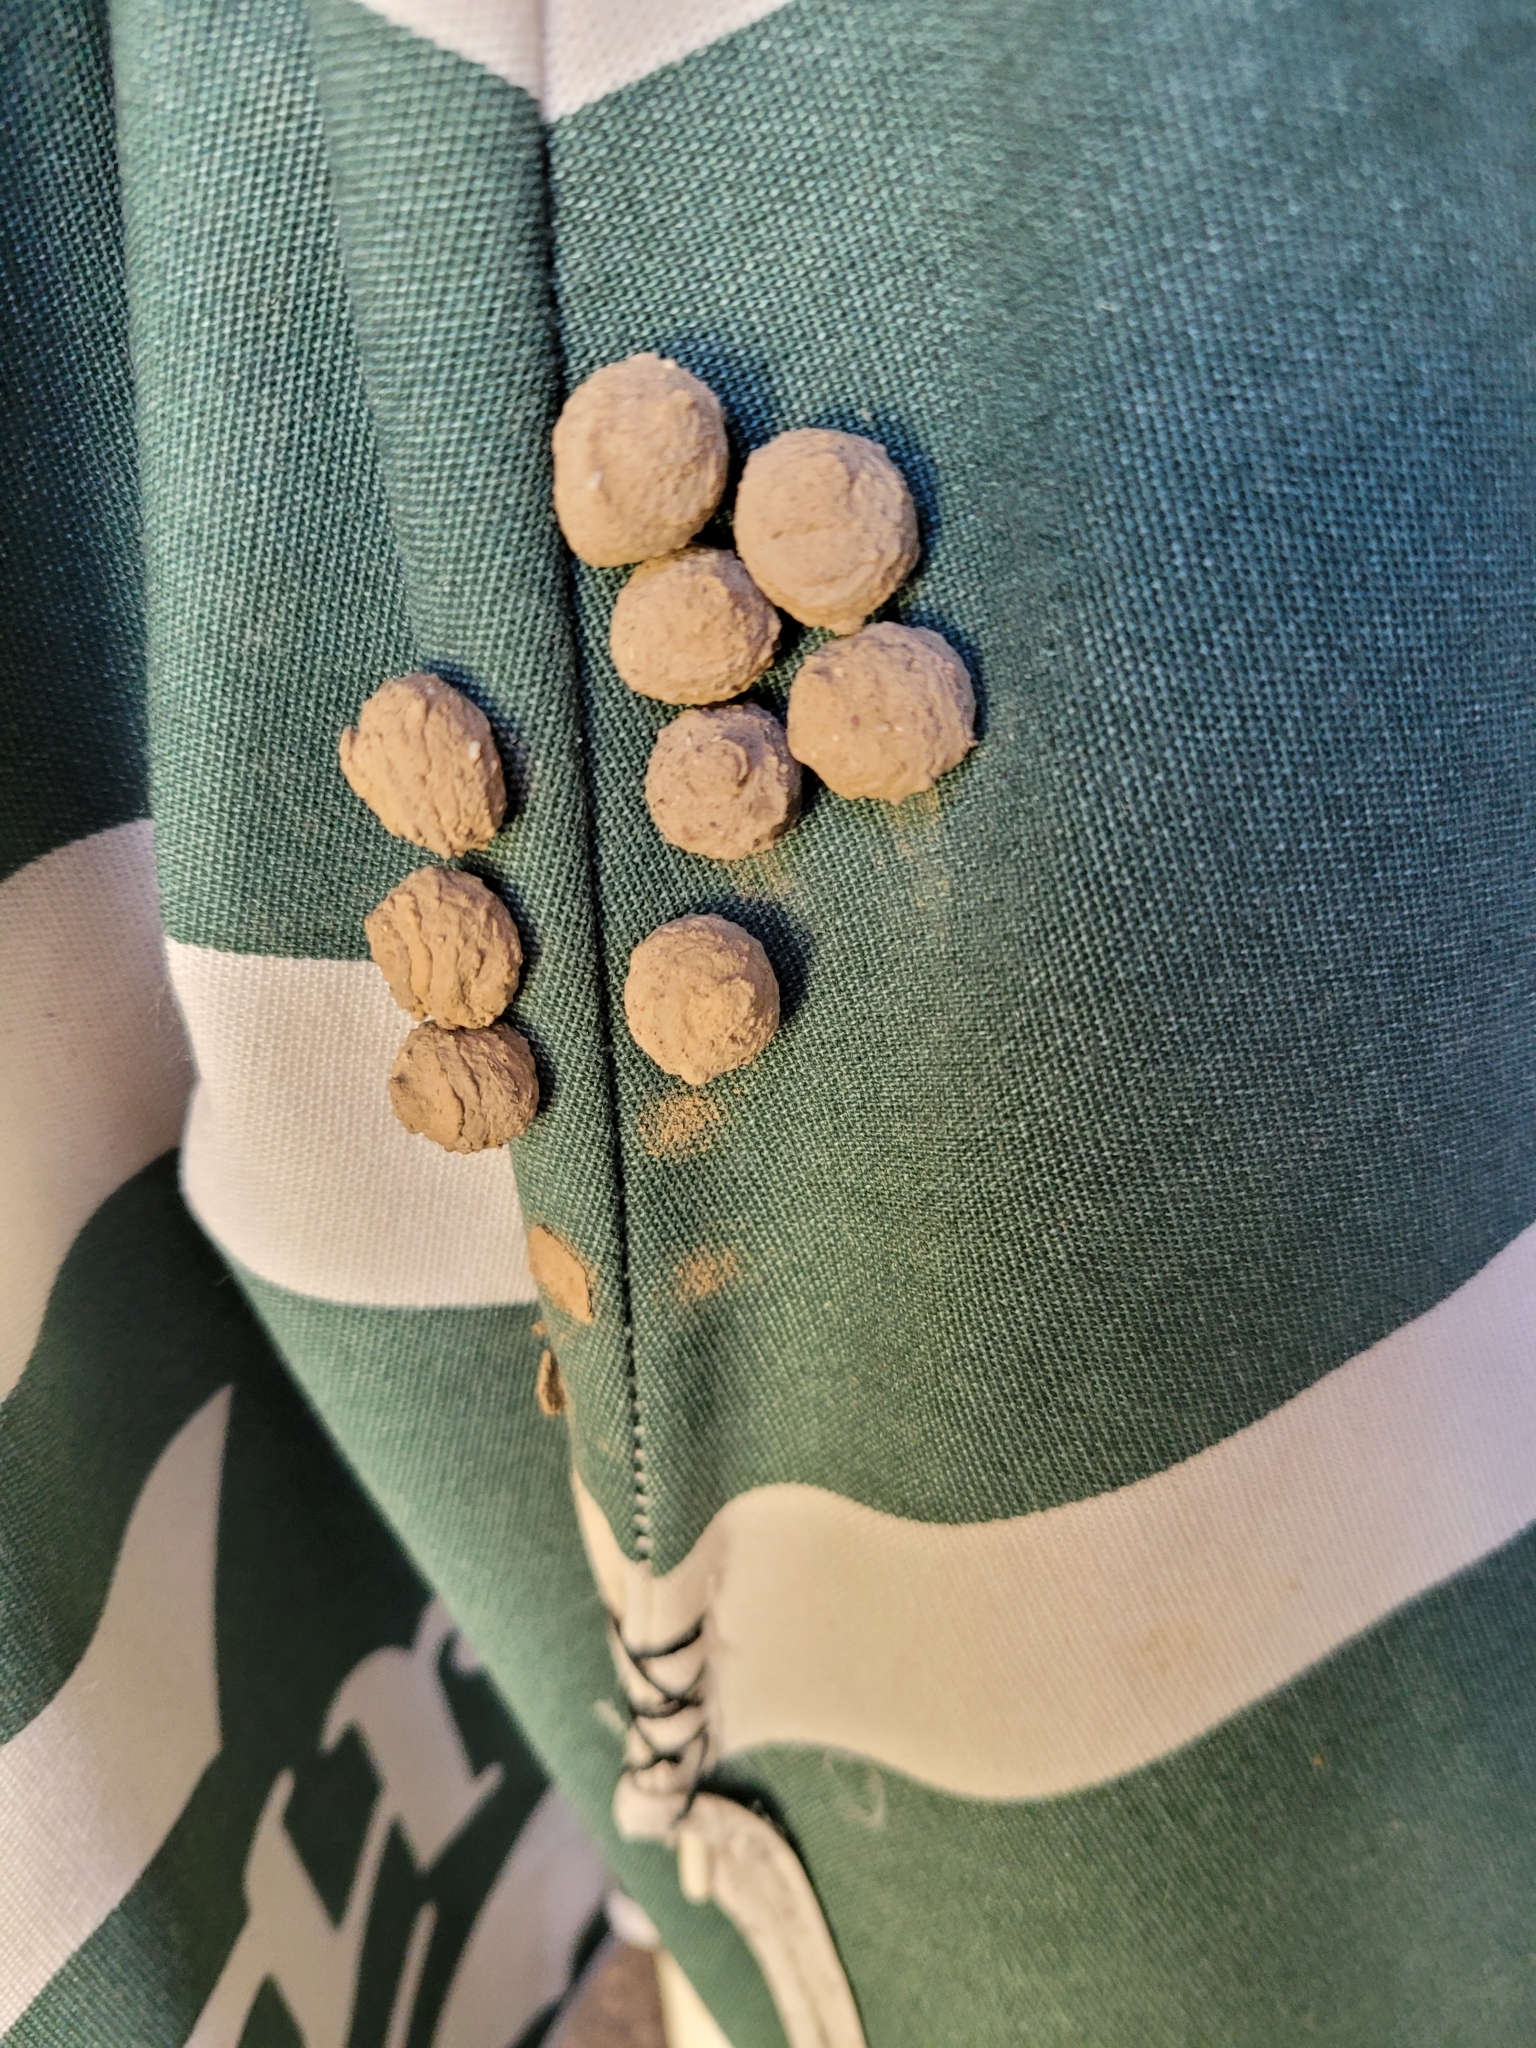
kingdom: Animalia
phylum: Arthropoda
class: Insecta
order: Hymenoptera
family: Vespidae
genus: Eumenes
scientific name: Eumenes
